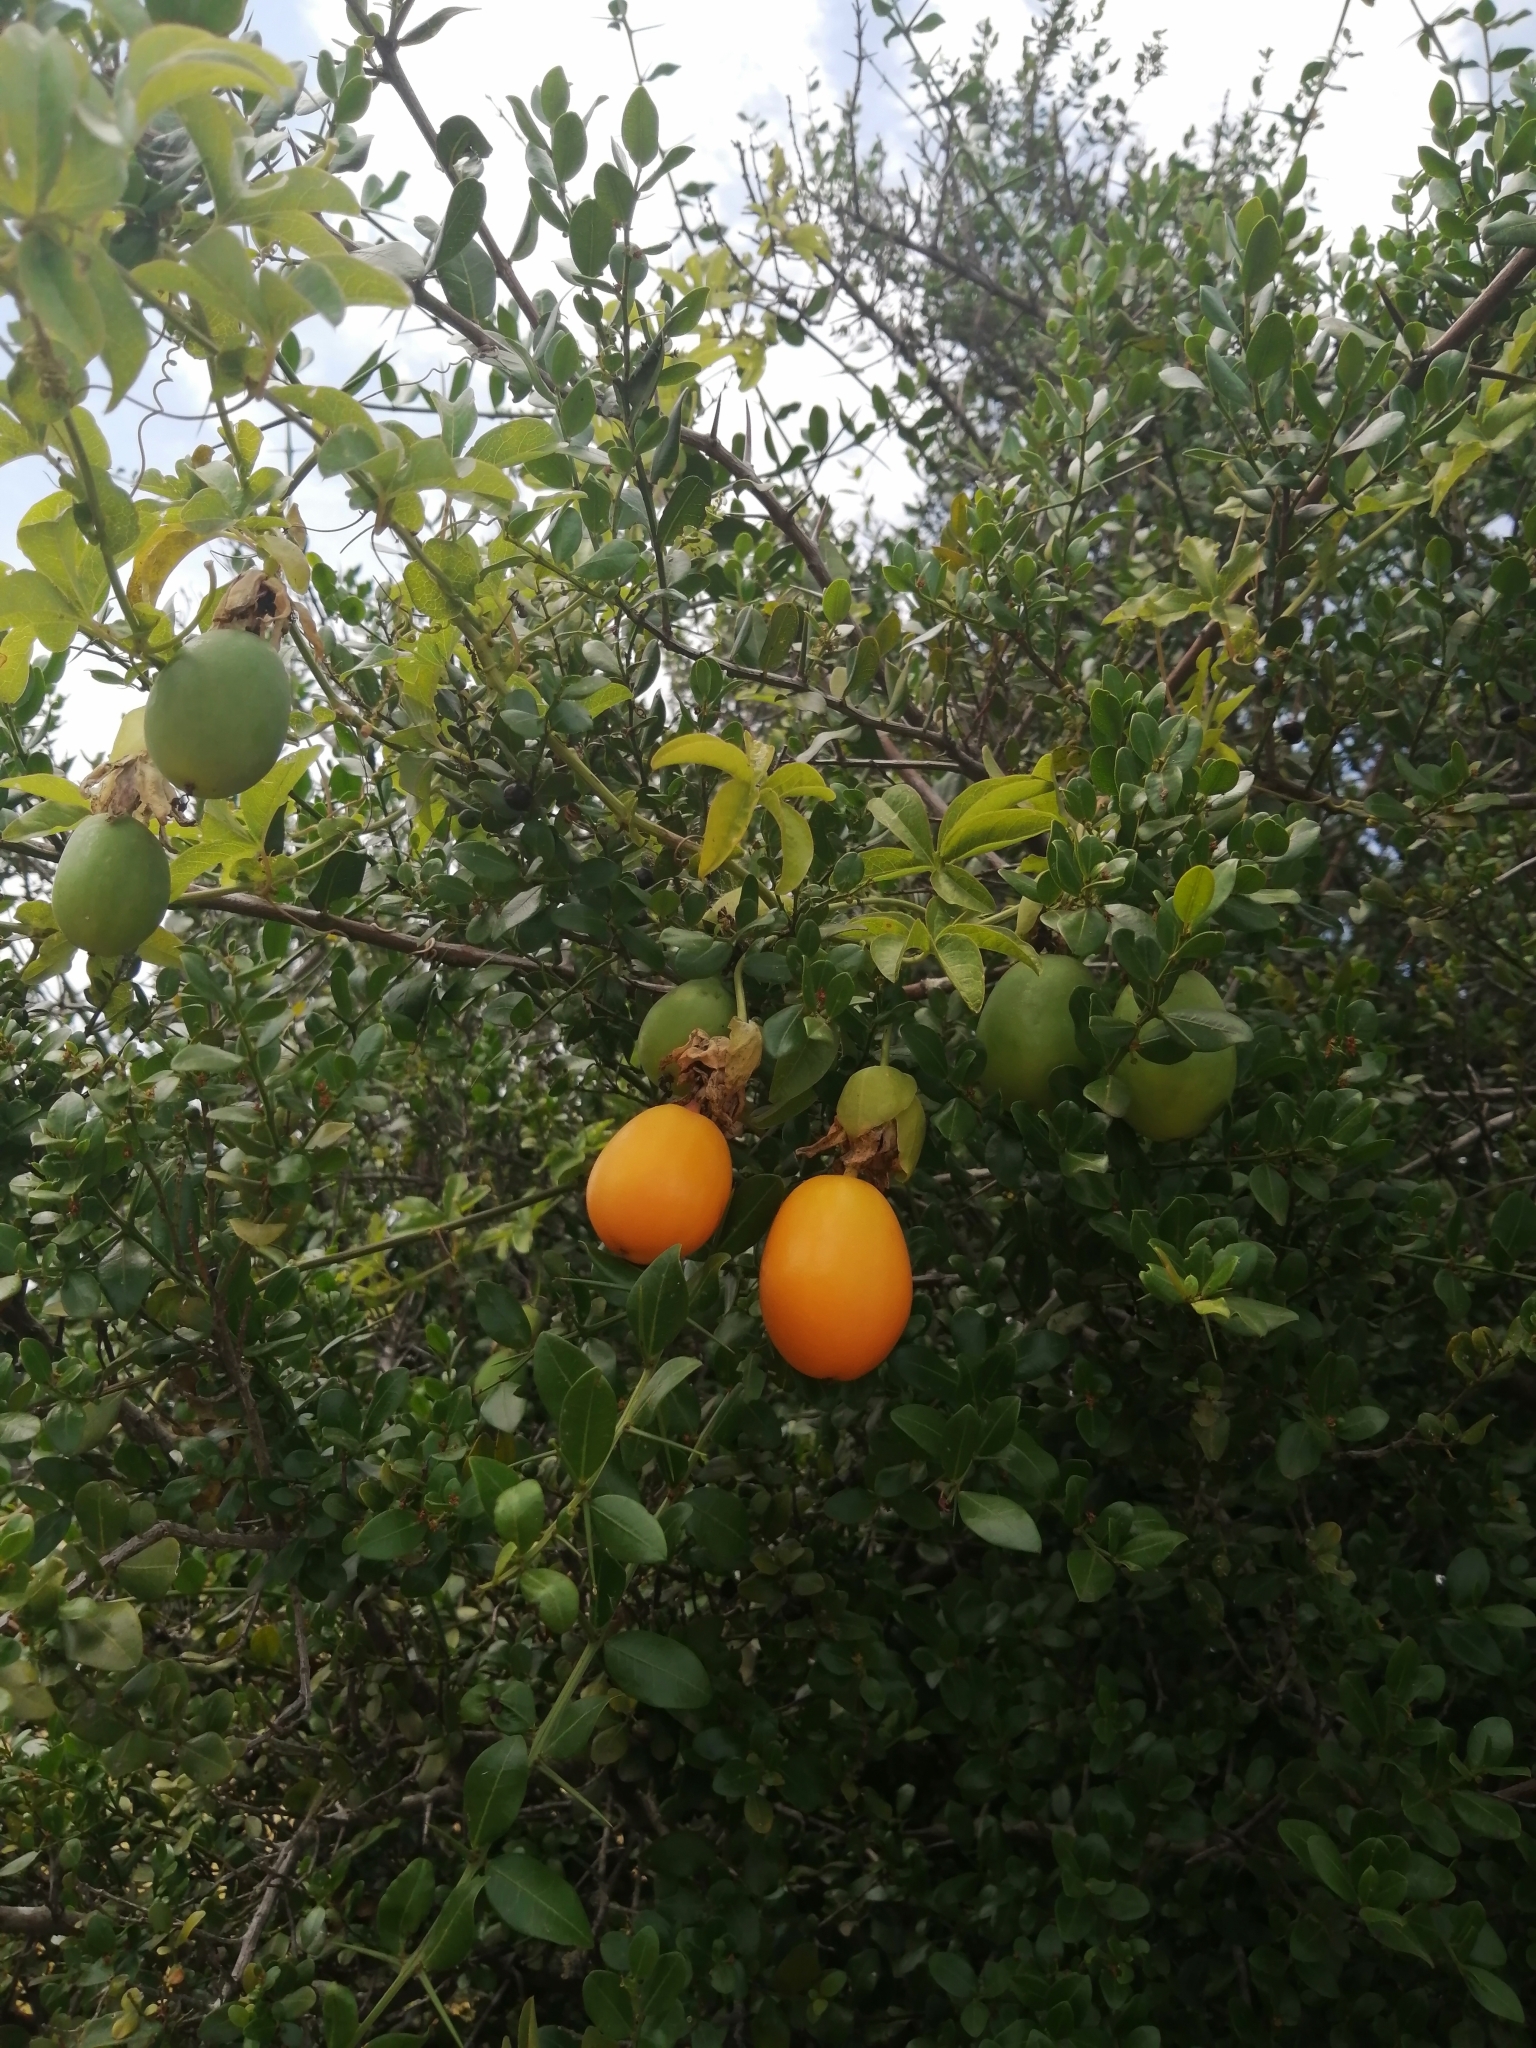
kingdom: Plantae
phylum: Tracheophyta
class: Magnoliopsida
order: Malpighiales
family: Passifloraceae
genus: Passiflora
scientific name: Passiflora caerulea
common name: Blue passionflower
